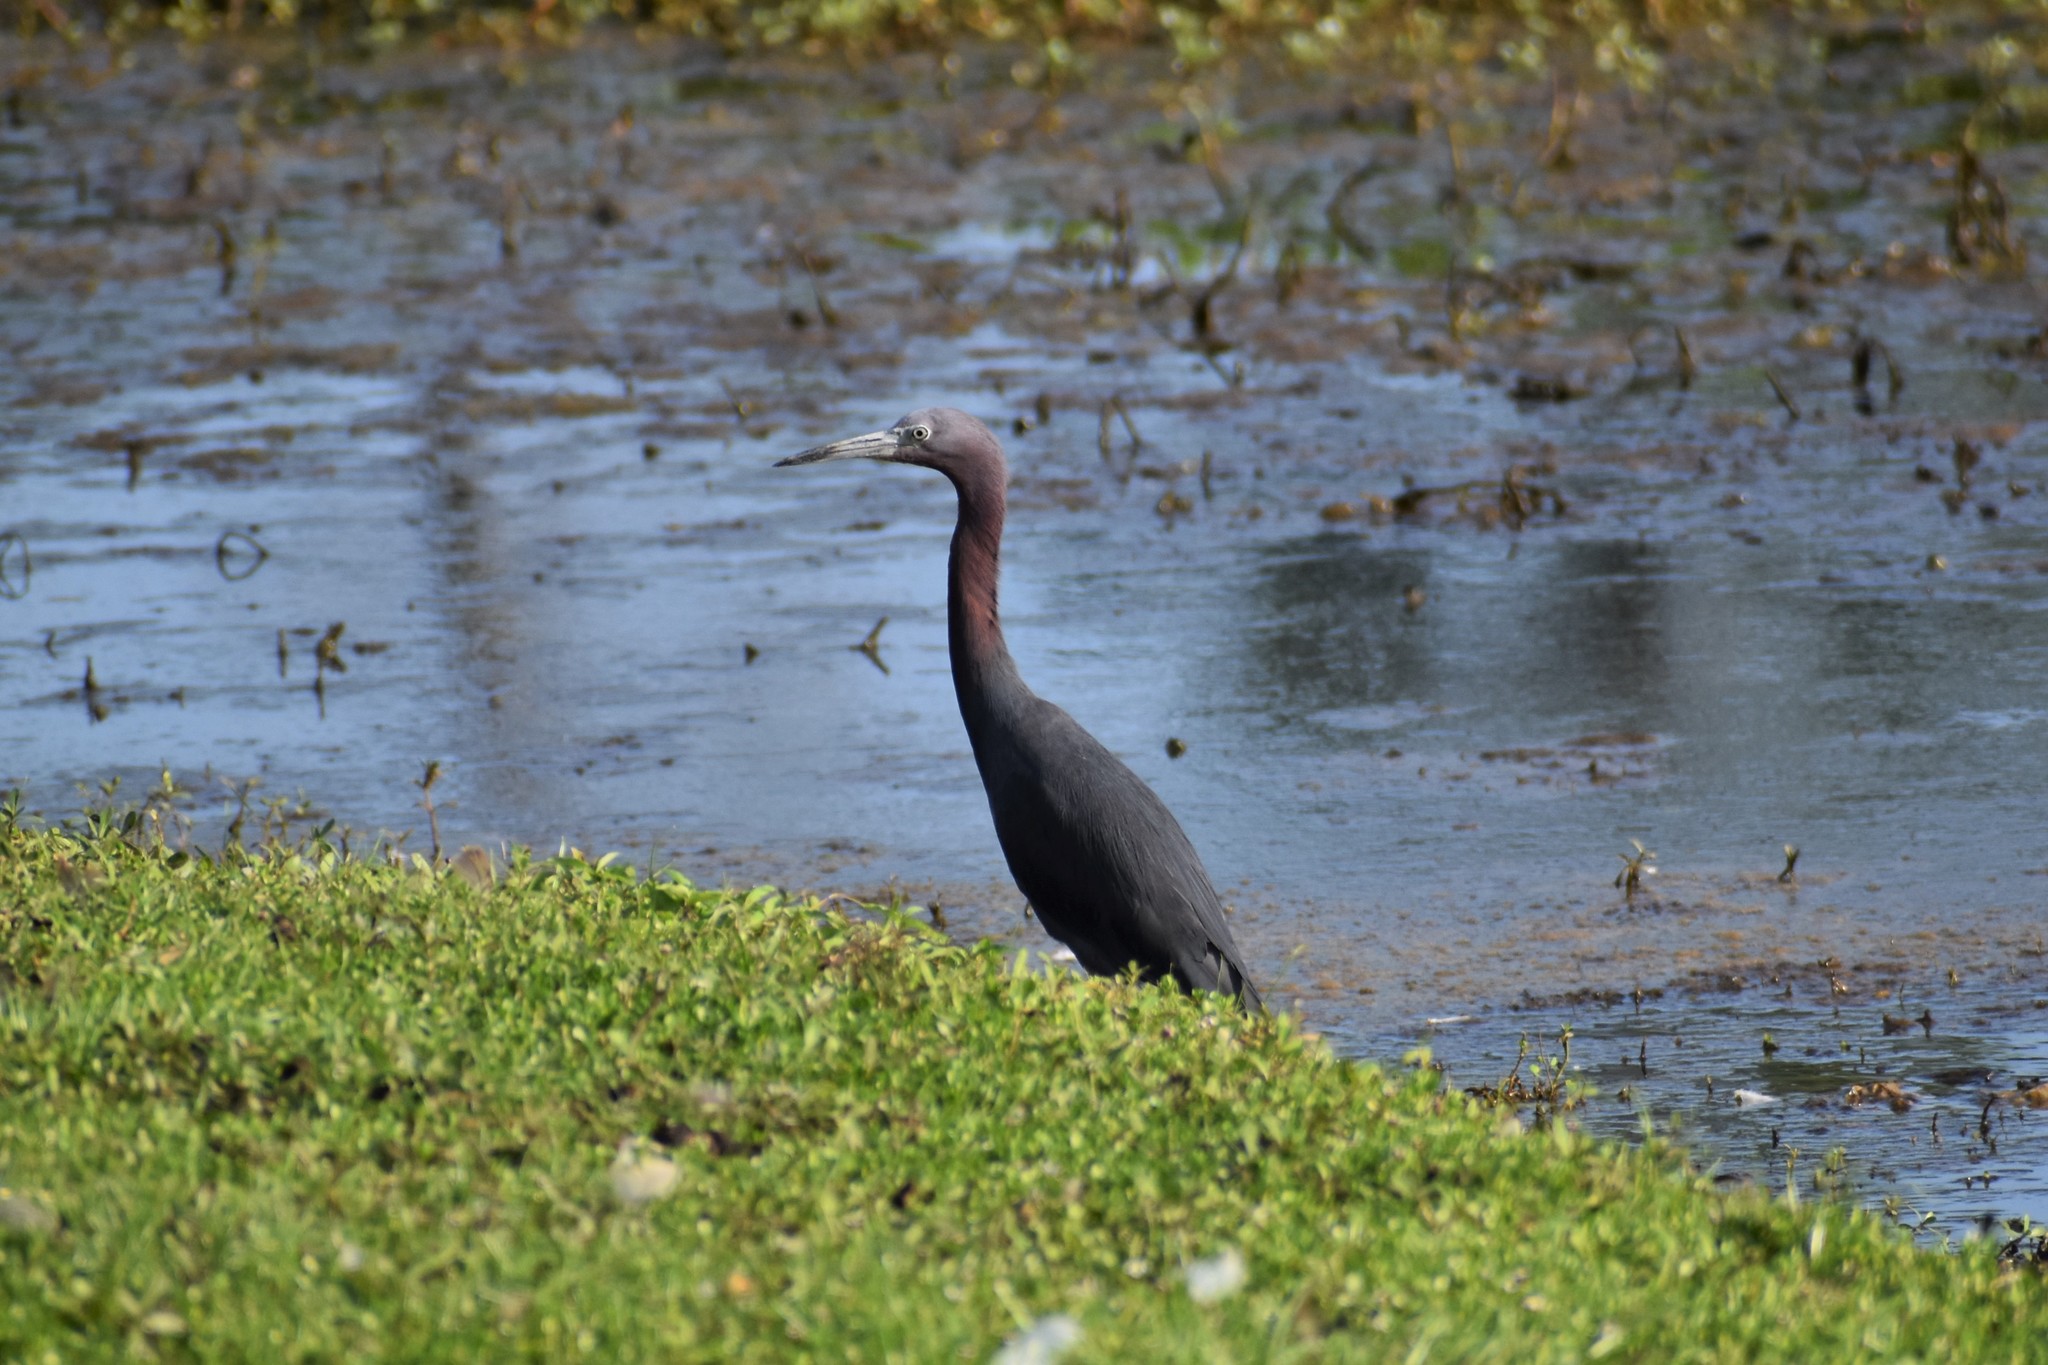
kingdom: Animalia
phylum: Chordata
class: Aves
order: Pelecaniformes
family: Ardeidae
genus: Egretta
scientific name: Egretta caerulea
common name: Little blue heron
